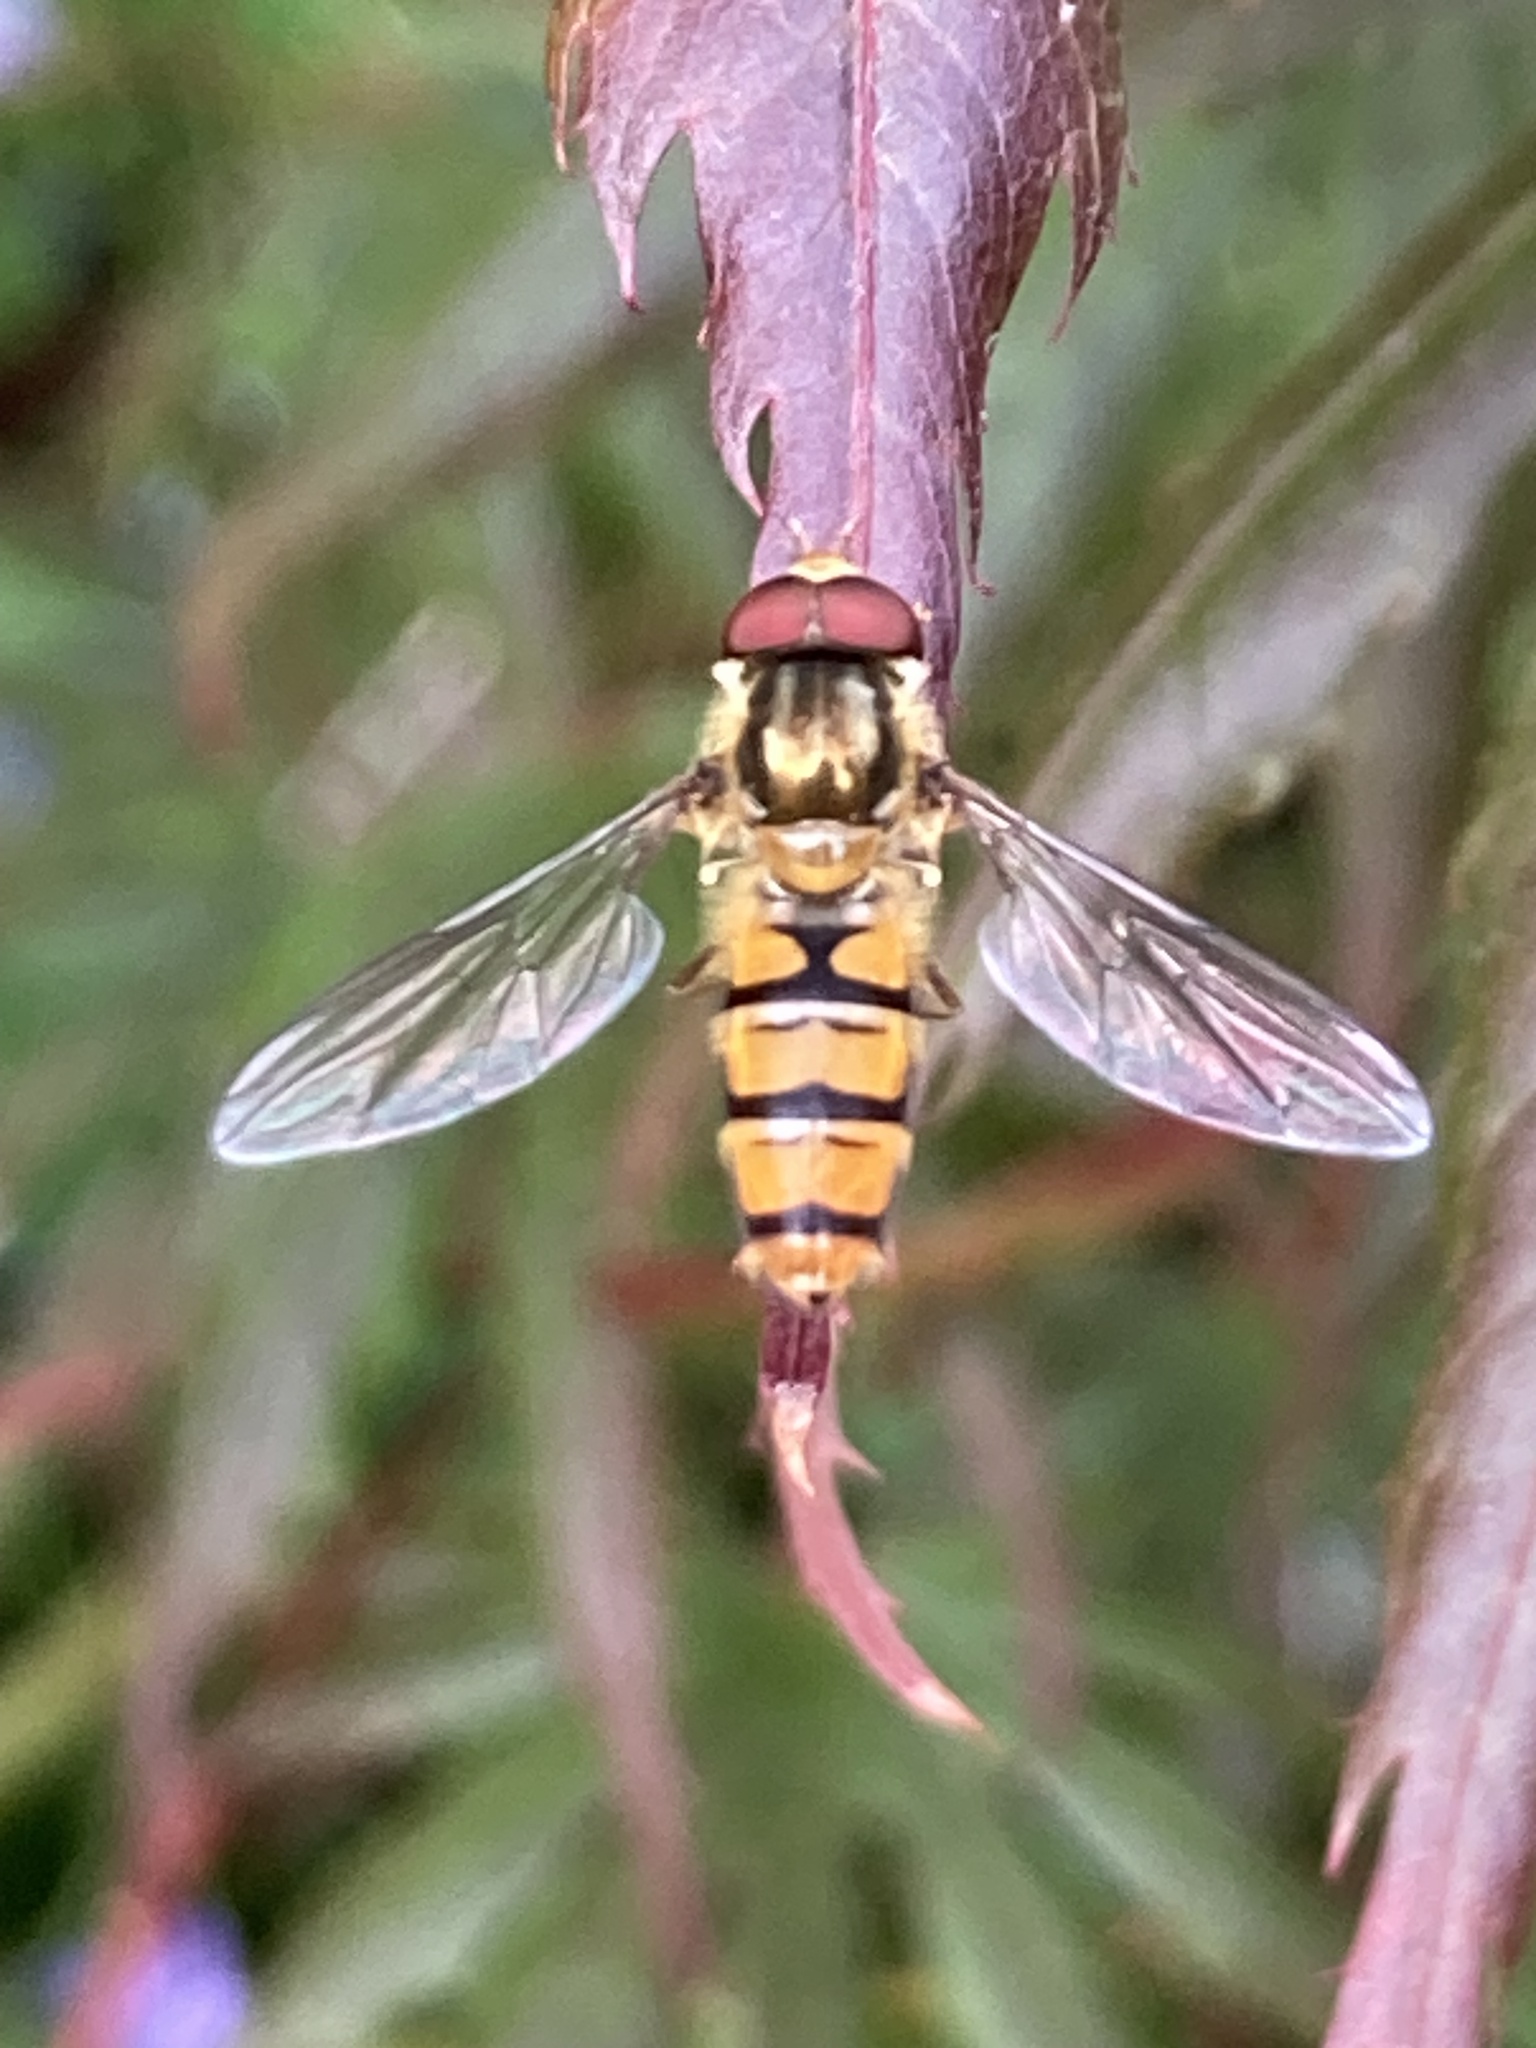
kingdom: Animalia
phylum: Arthropoda
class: Insecta
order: Diptera
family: Syrphidae
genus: Episyrphus
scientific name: Episyrphus balteatus
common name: Marmalade hoverfly
